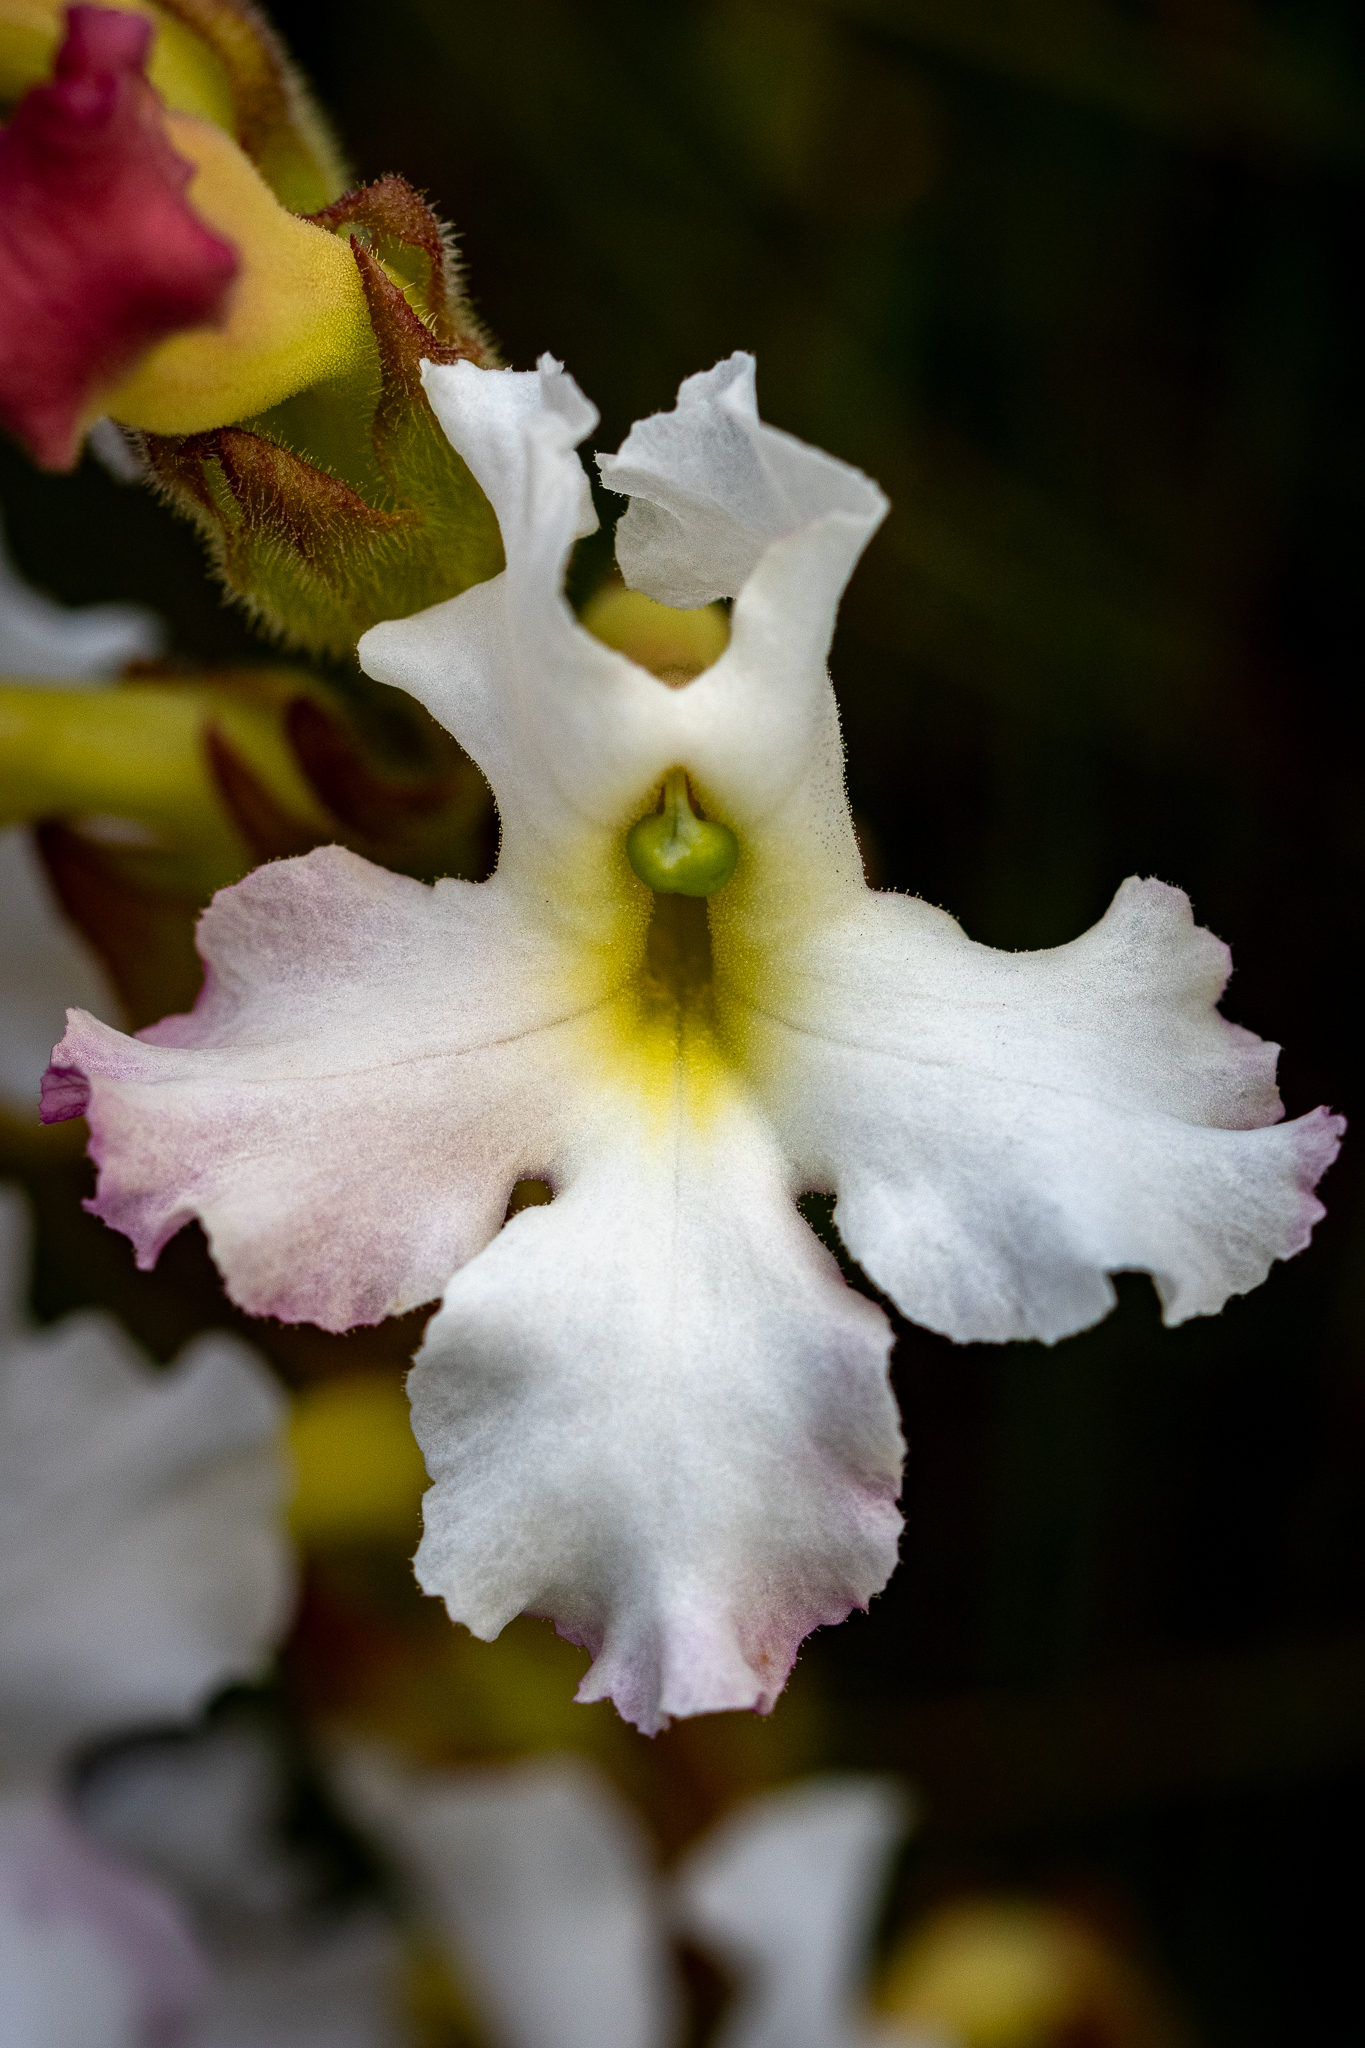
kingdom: Plantae
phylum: Tracheophyta
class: Magnoliopsida
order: Lamiales
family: Orobanchaceae
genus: Harveya
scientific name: Harveya capensis
